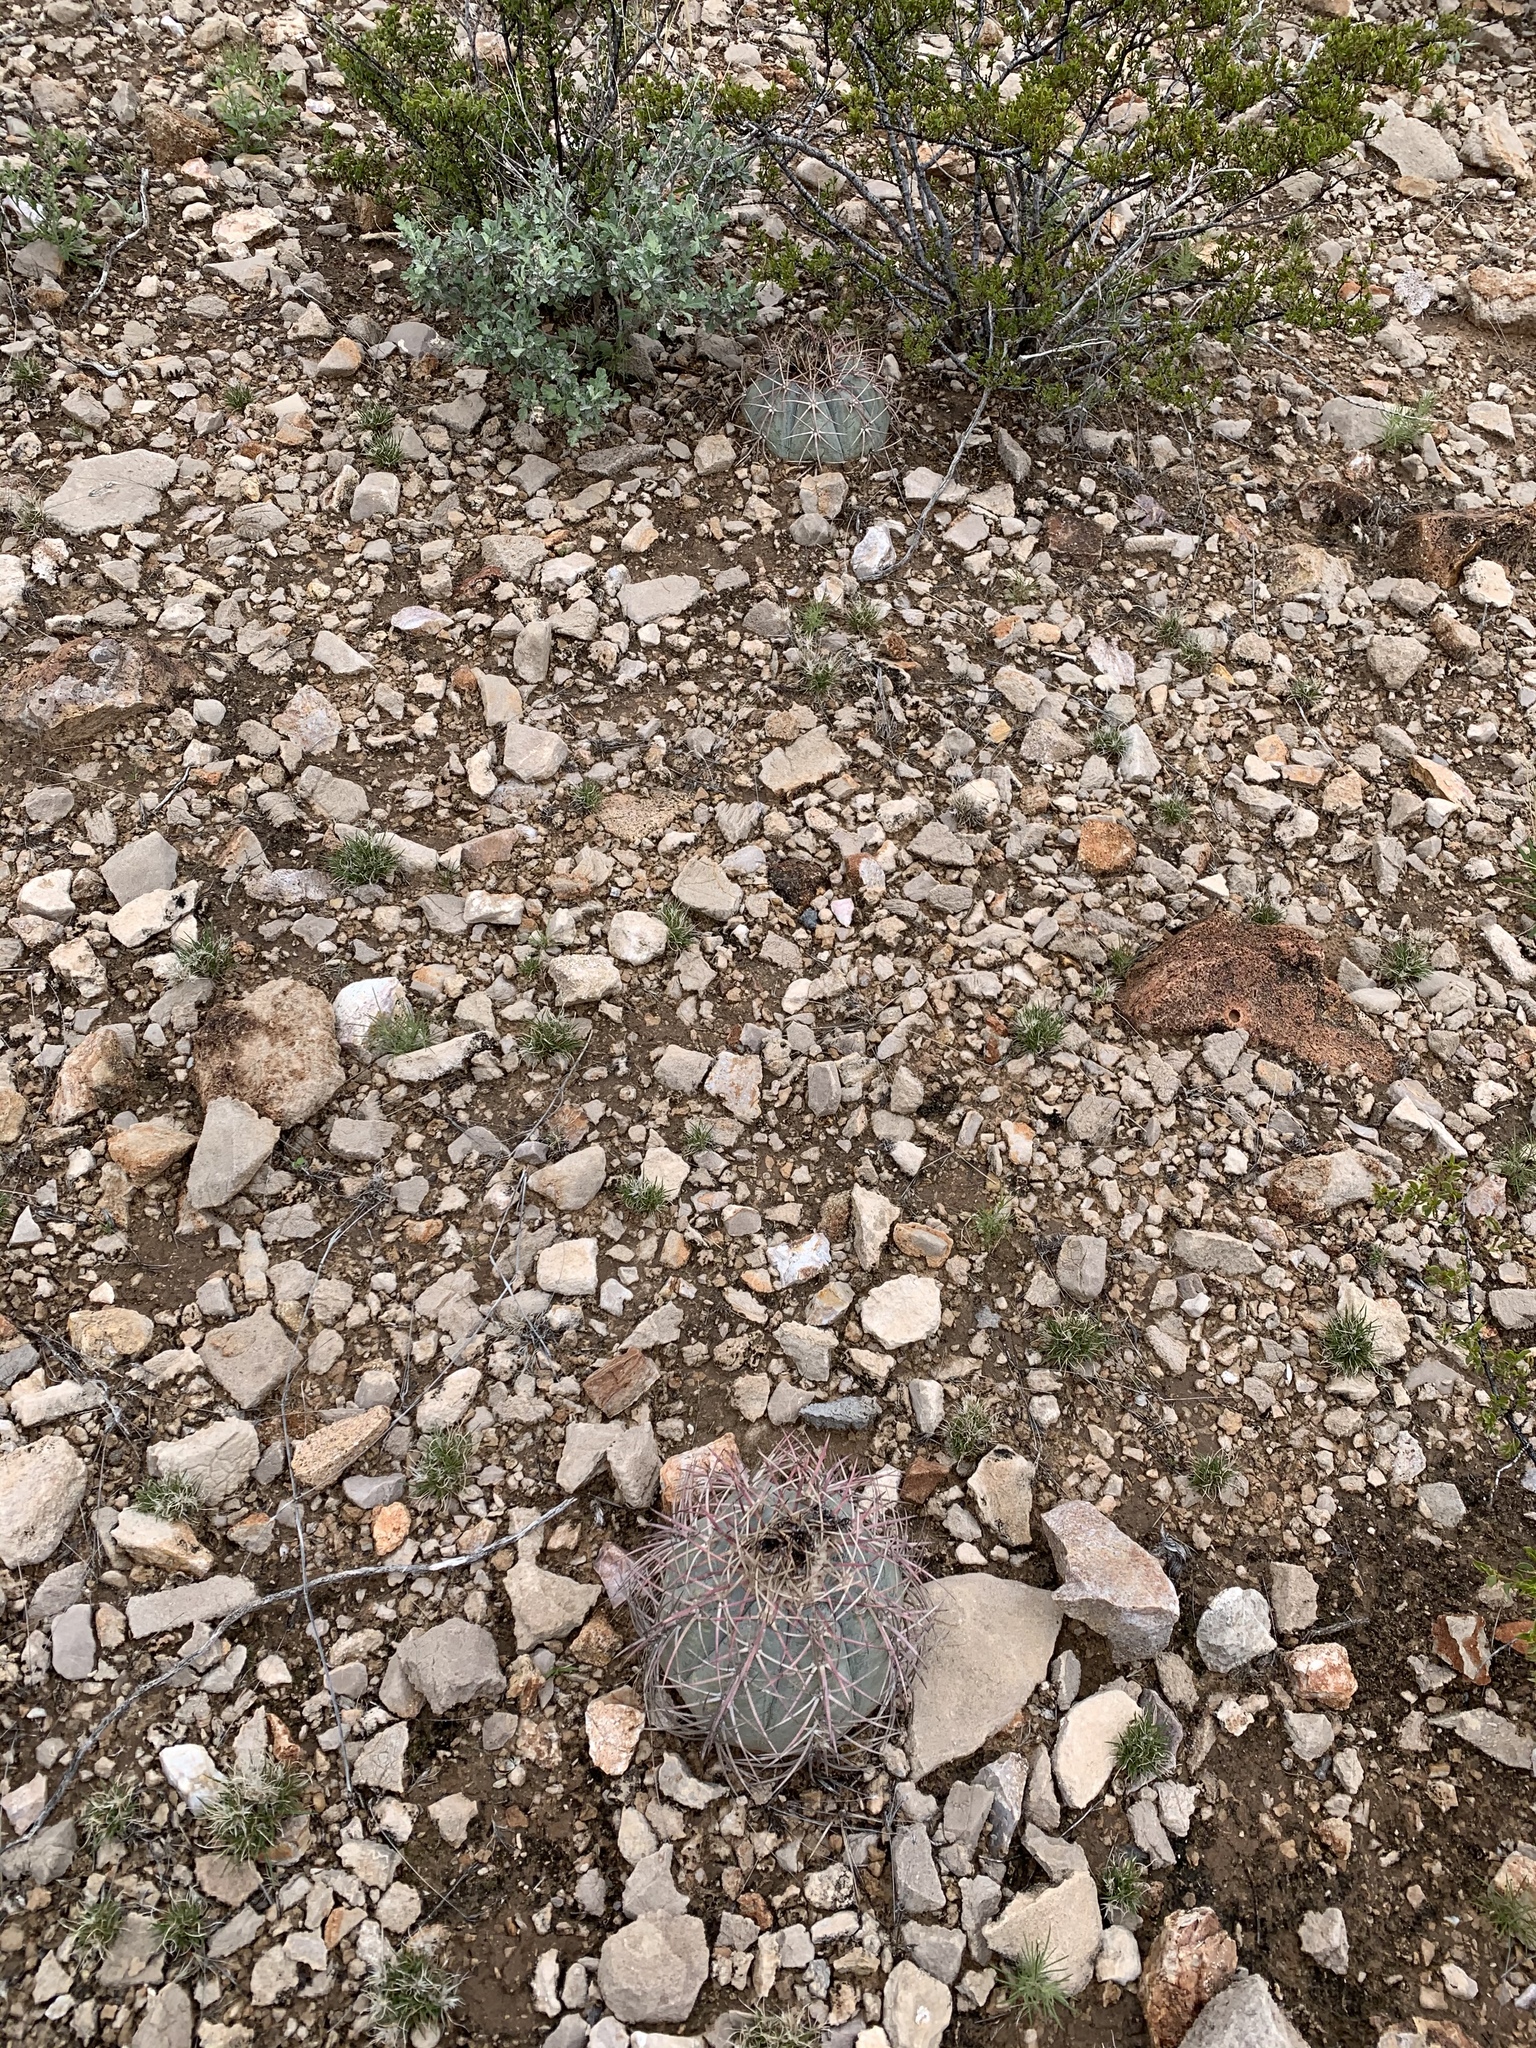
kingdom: Plantae
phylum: Tracheophyta
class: Magnoliopsida
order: Caryophyllales
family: Cactaceae
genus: Echinocactus
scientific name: Echinocactus horizonthalonius
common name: Devilshead
